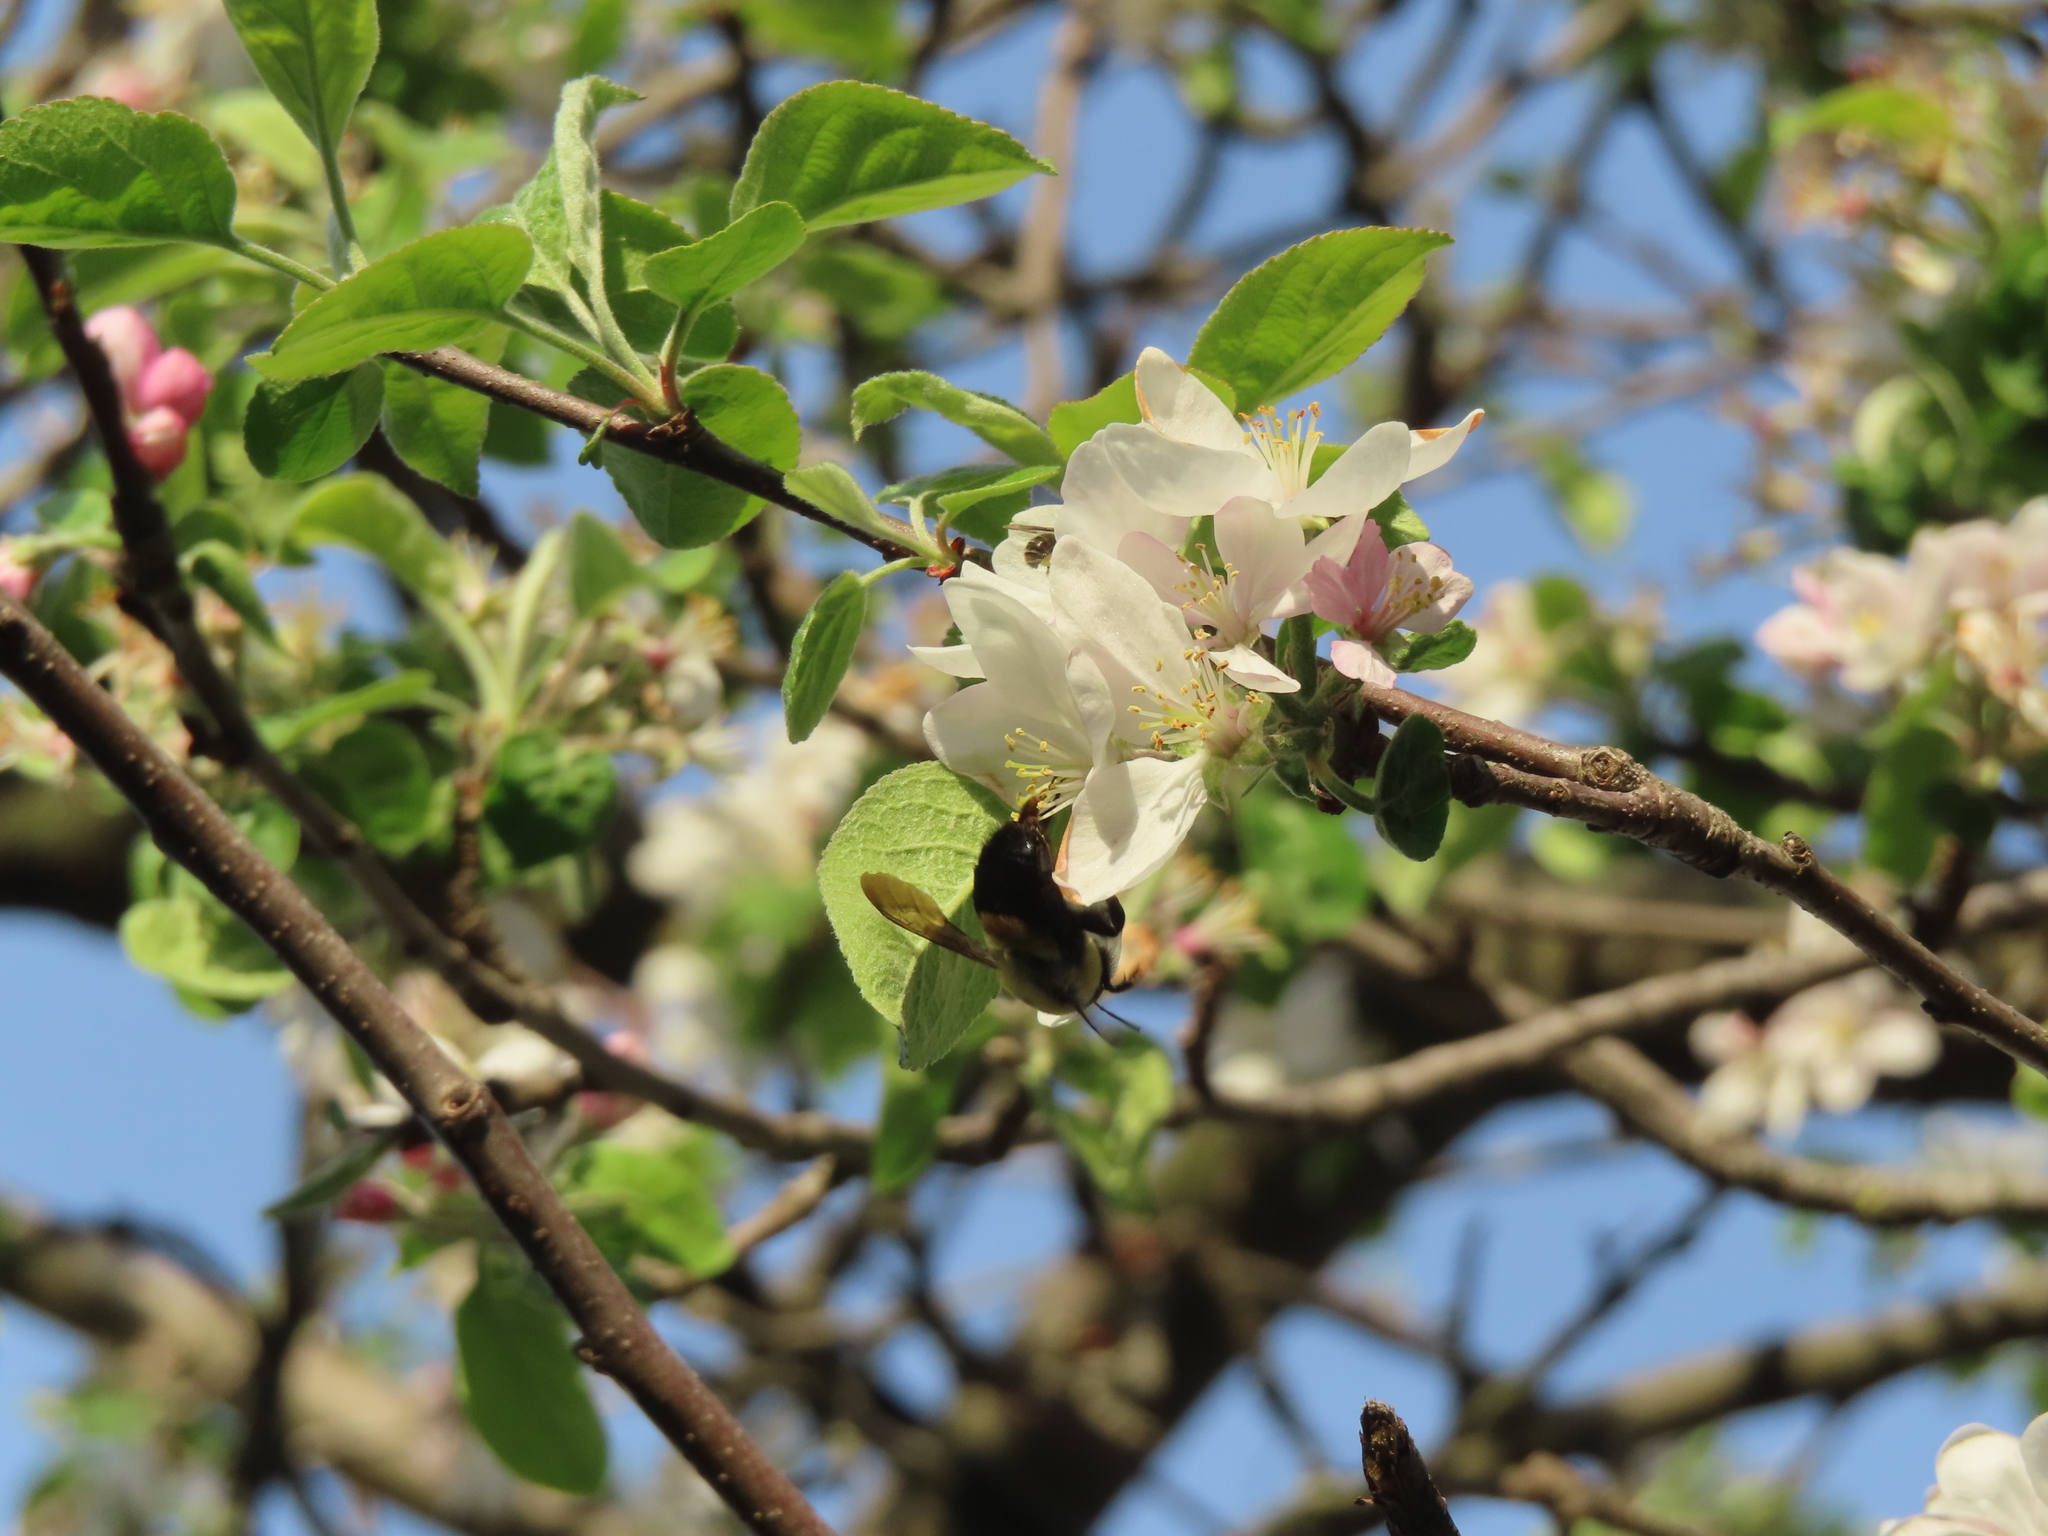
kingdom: Animalia
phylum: Arthropoda
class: Insecta
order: Hymenoptera
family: Apidae
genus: Bombus
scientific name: Bombus griseocollis
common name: Brown-belted bumble bee
